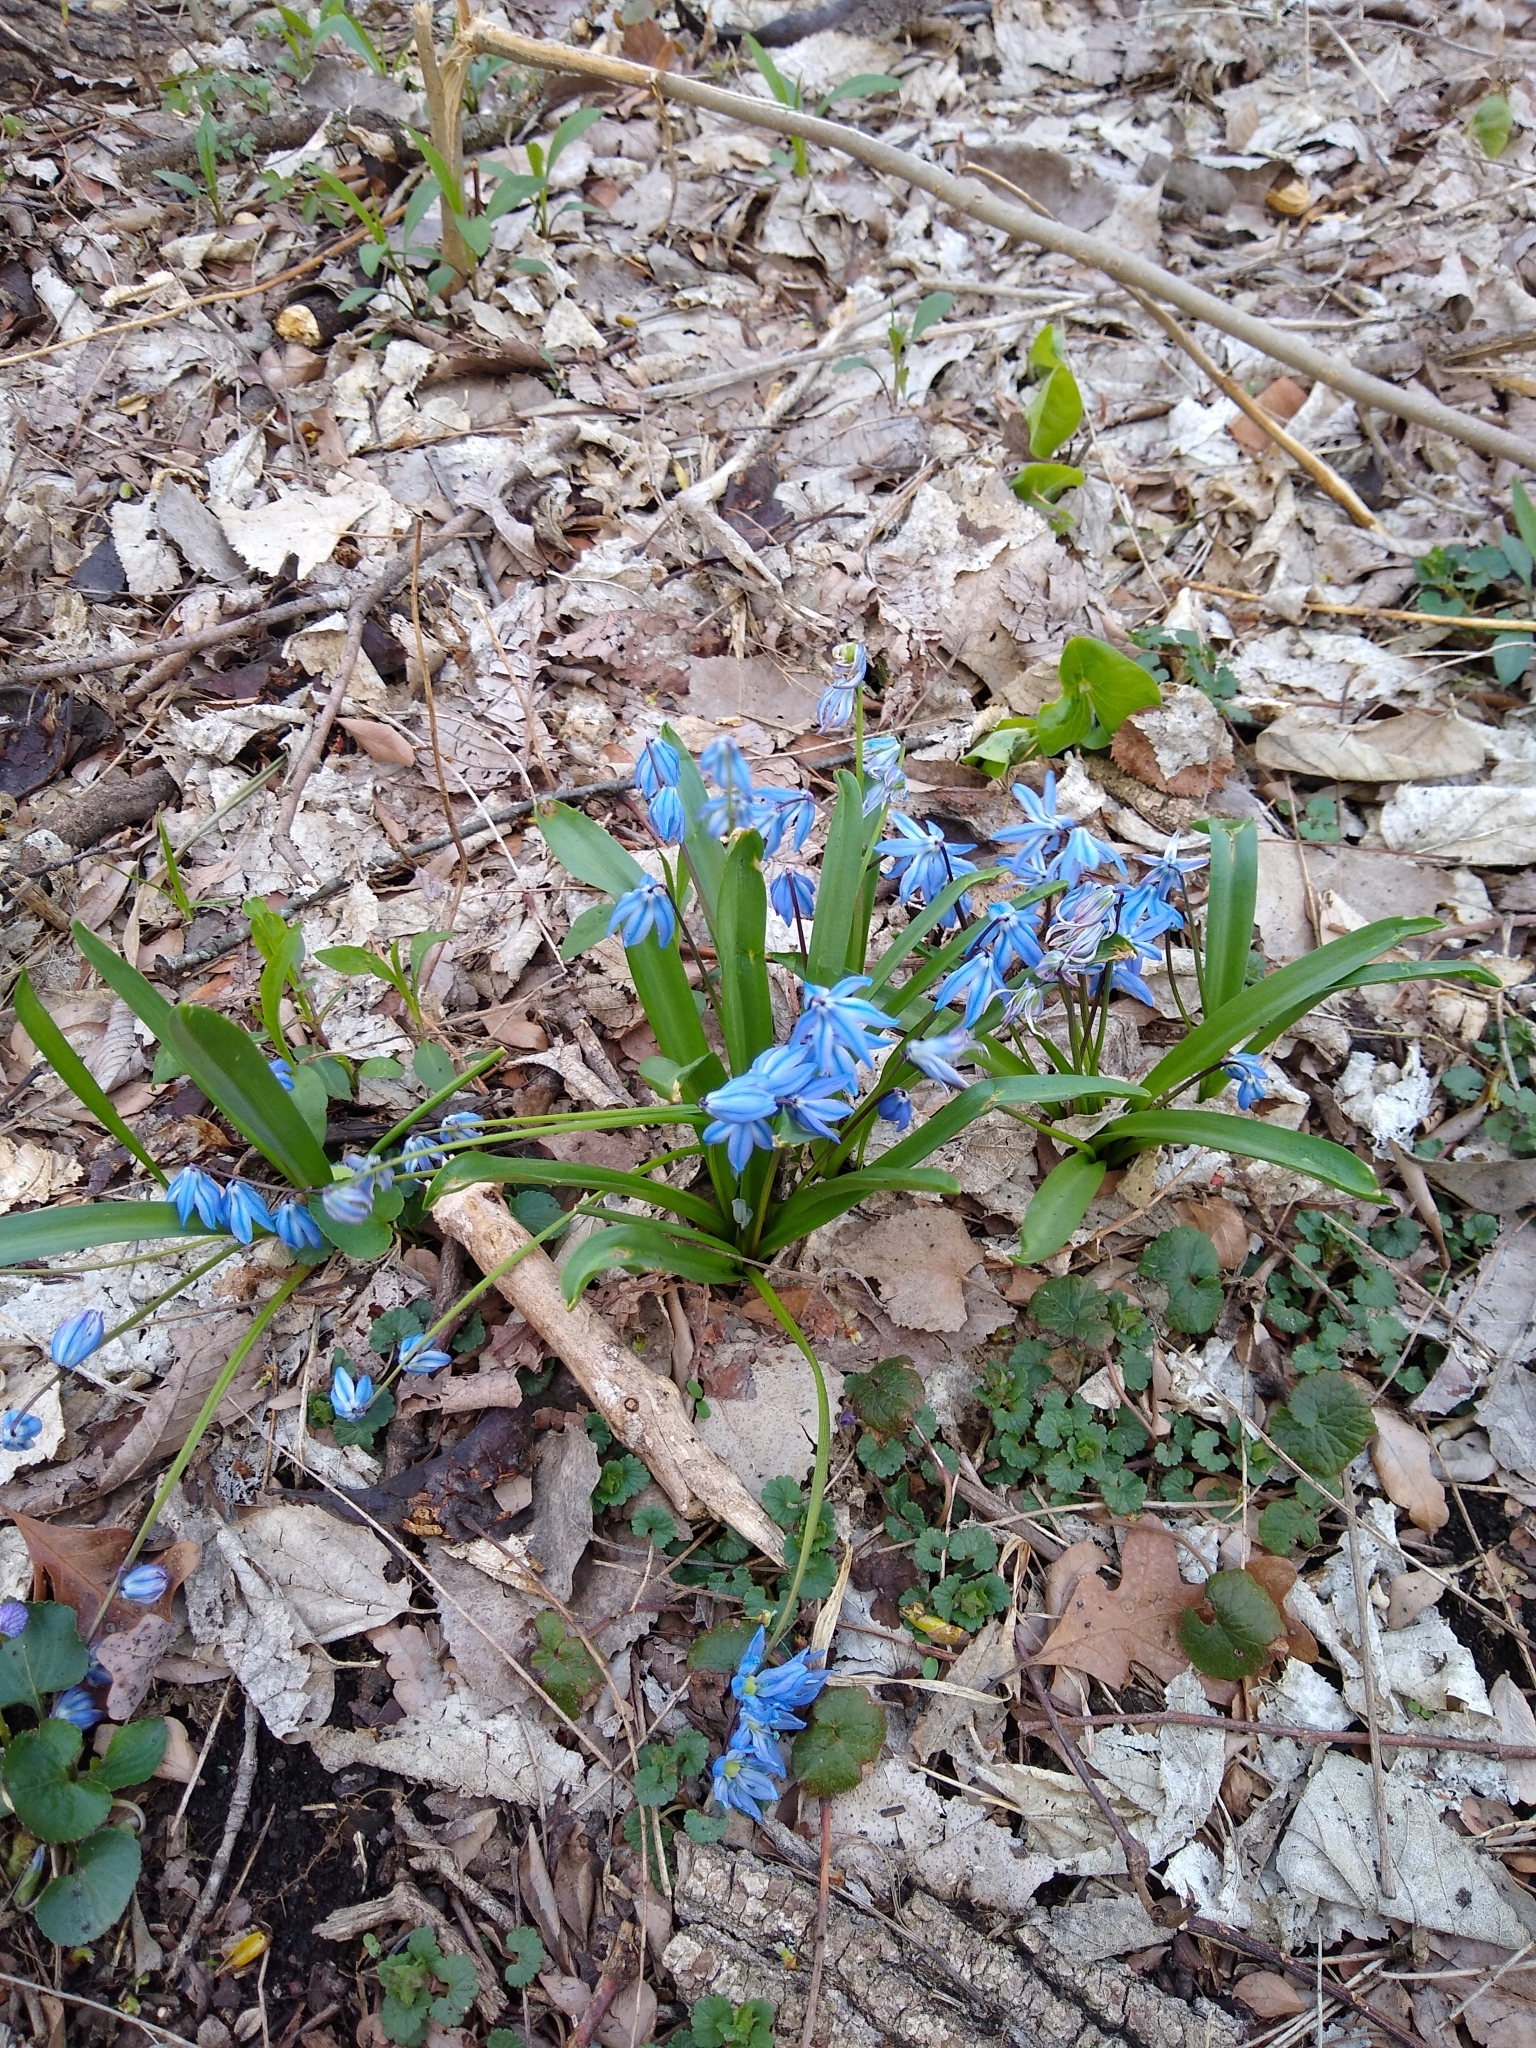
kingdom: Plantae
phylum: Tracheophyta
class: Liliopsida
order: Asparagales
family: Asparagaceae
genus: Scilla
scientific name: Scilla siberica
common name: Siberian squill
